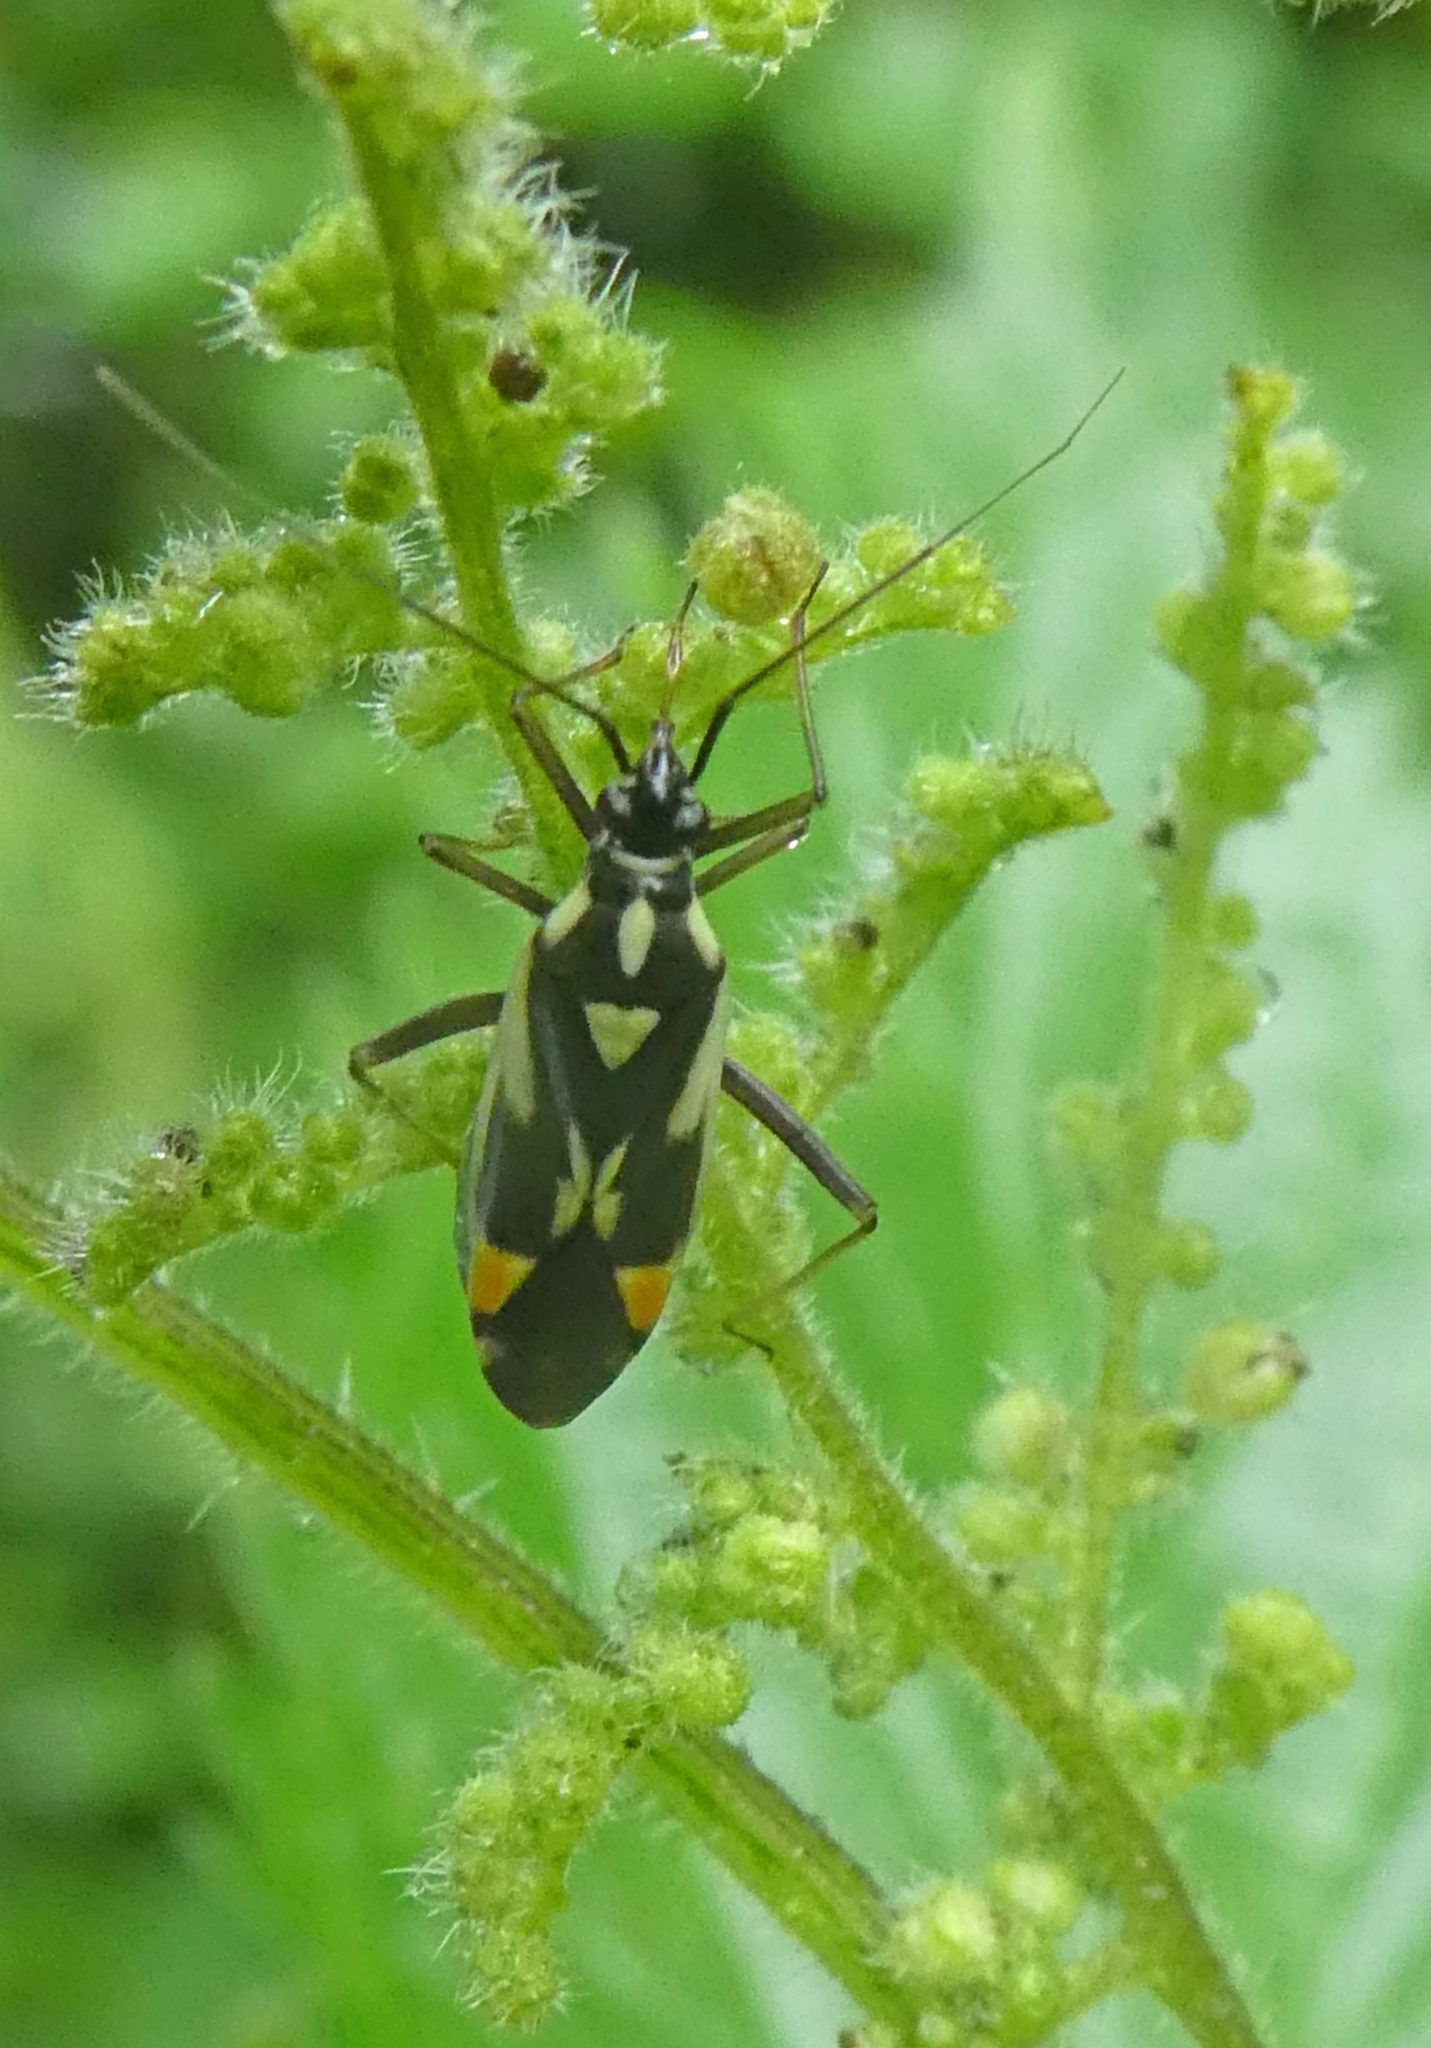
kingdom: Animalia
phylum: Arthropoda
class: Insecta
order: Hemiptera
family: Miridae
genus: Grypocoris
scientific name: Grypocoris stysi
